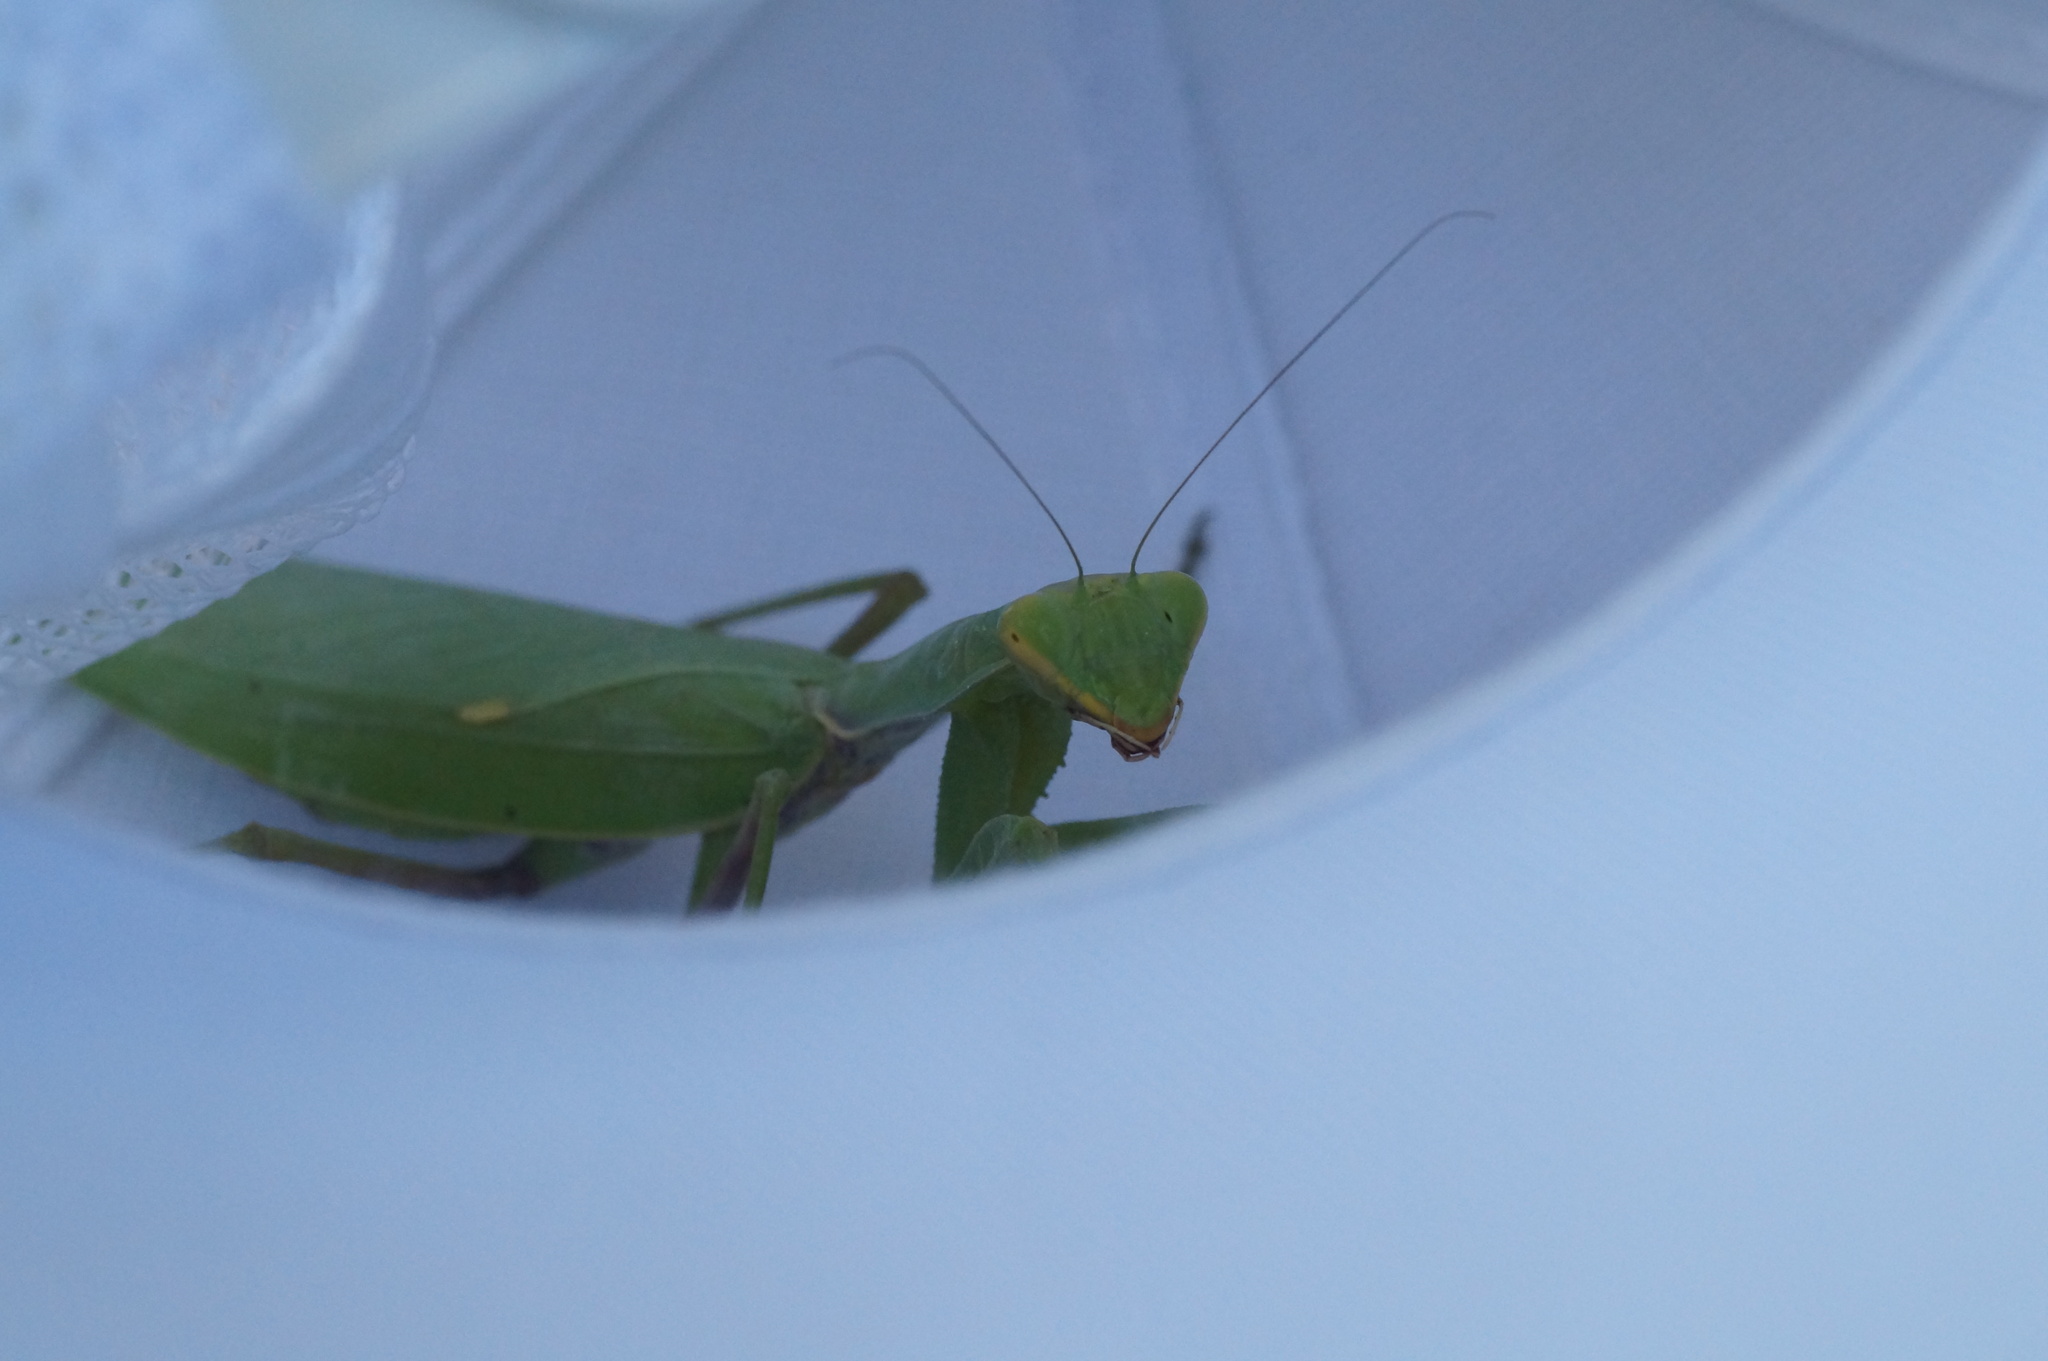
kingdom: Animalia
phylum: Arthropoda
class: Insecta
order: Mantodea
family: Mantidae
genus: Hierodula
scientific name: Hierodula transcaucasica
